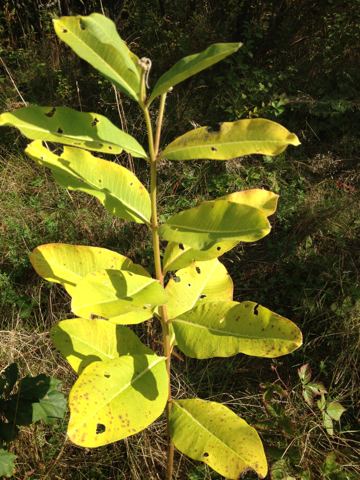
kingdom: Plantae
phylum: Tracheophyta
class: Magnoliopsida
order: Gentianales
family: Apocynaceae
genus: Asclepias
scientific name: Asclepias syriaca
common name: Common milkweed
